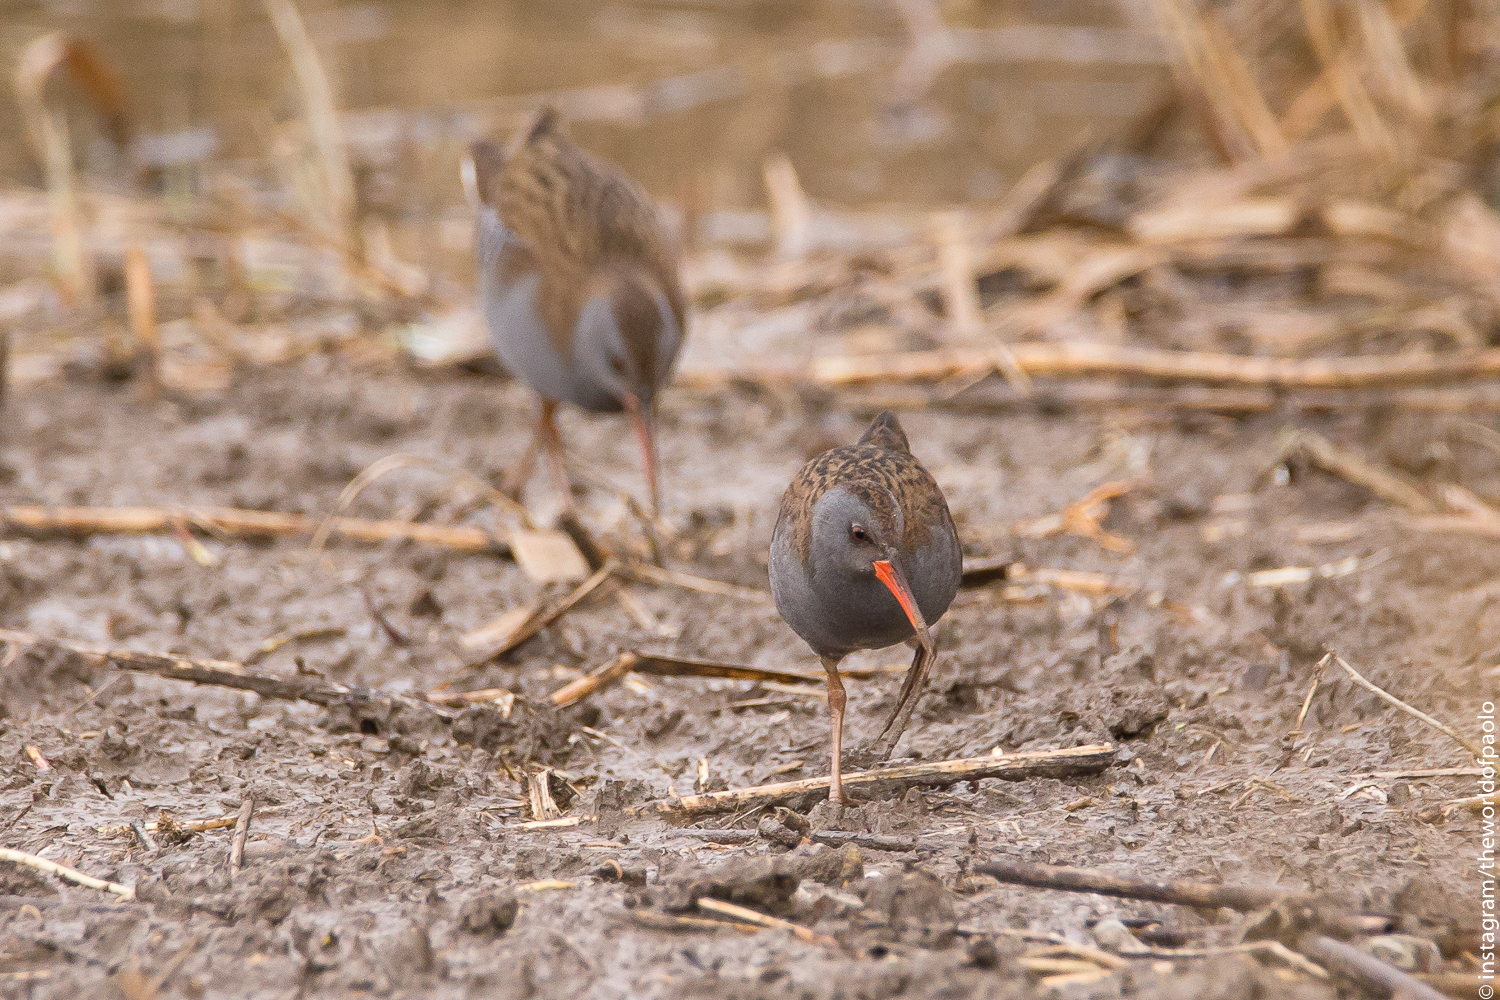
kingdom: Animalia
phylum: Chordata
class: Aves
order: Gruiformes
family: Rallidae
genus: Rallus
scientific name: Rallus aquaticus
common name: Water rail
